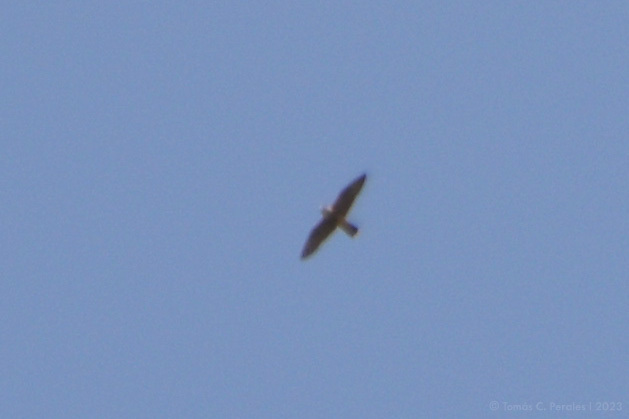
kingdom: Animalia
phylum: Chordata
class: Aves
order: Falconiformes
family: Falconidae
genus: Falco
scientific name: Falco peregrinus
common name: Peregrine falcon
